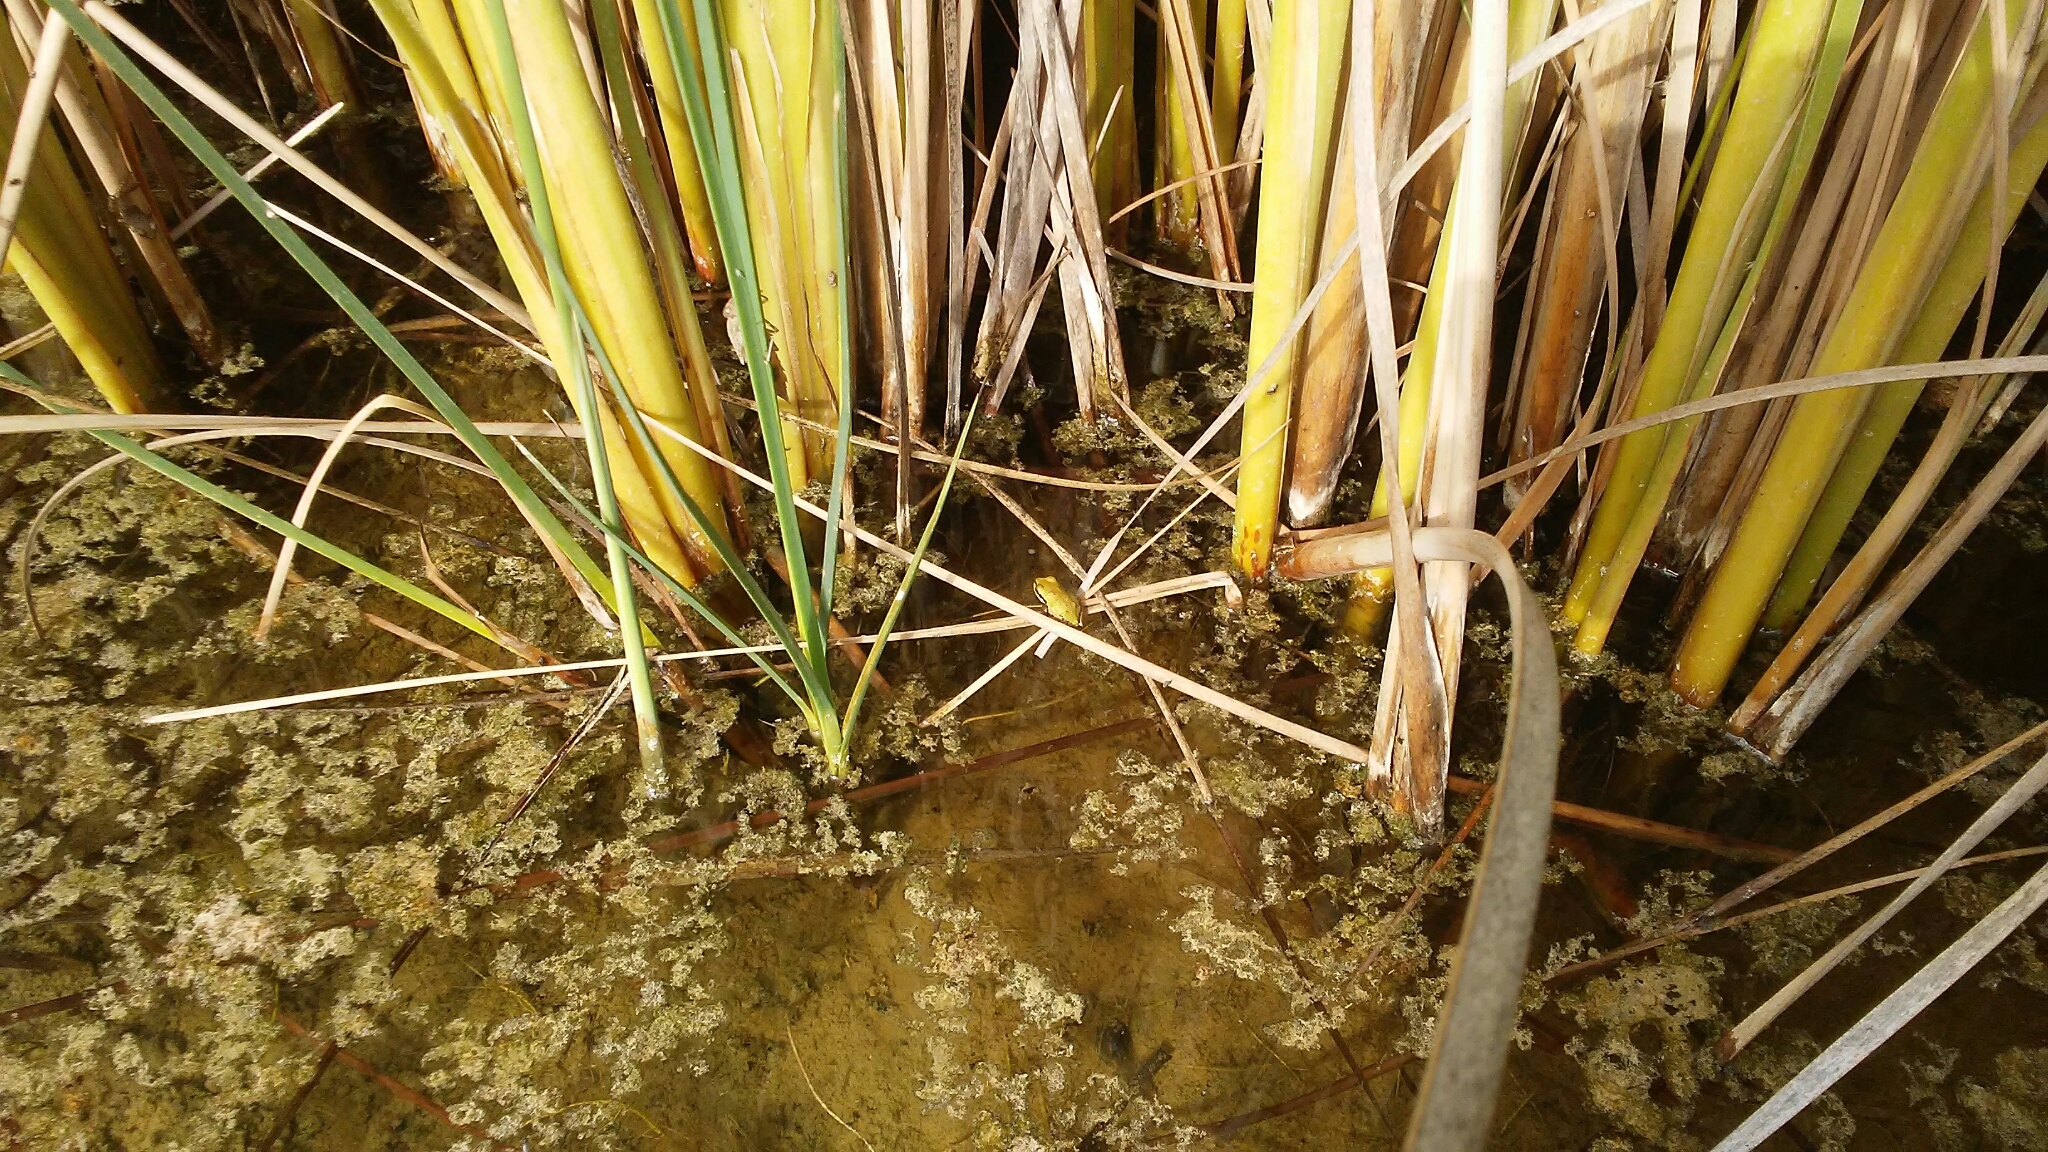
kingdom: Animalia
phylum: Chordata
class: Amphibia
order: Anura
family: Hylidae
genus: Pseudacris
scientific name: Pseudacris regilla
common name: Pacific chorus frog
